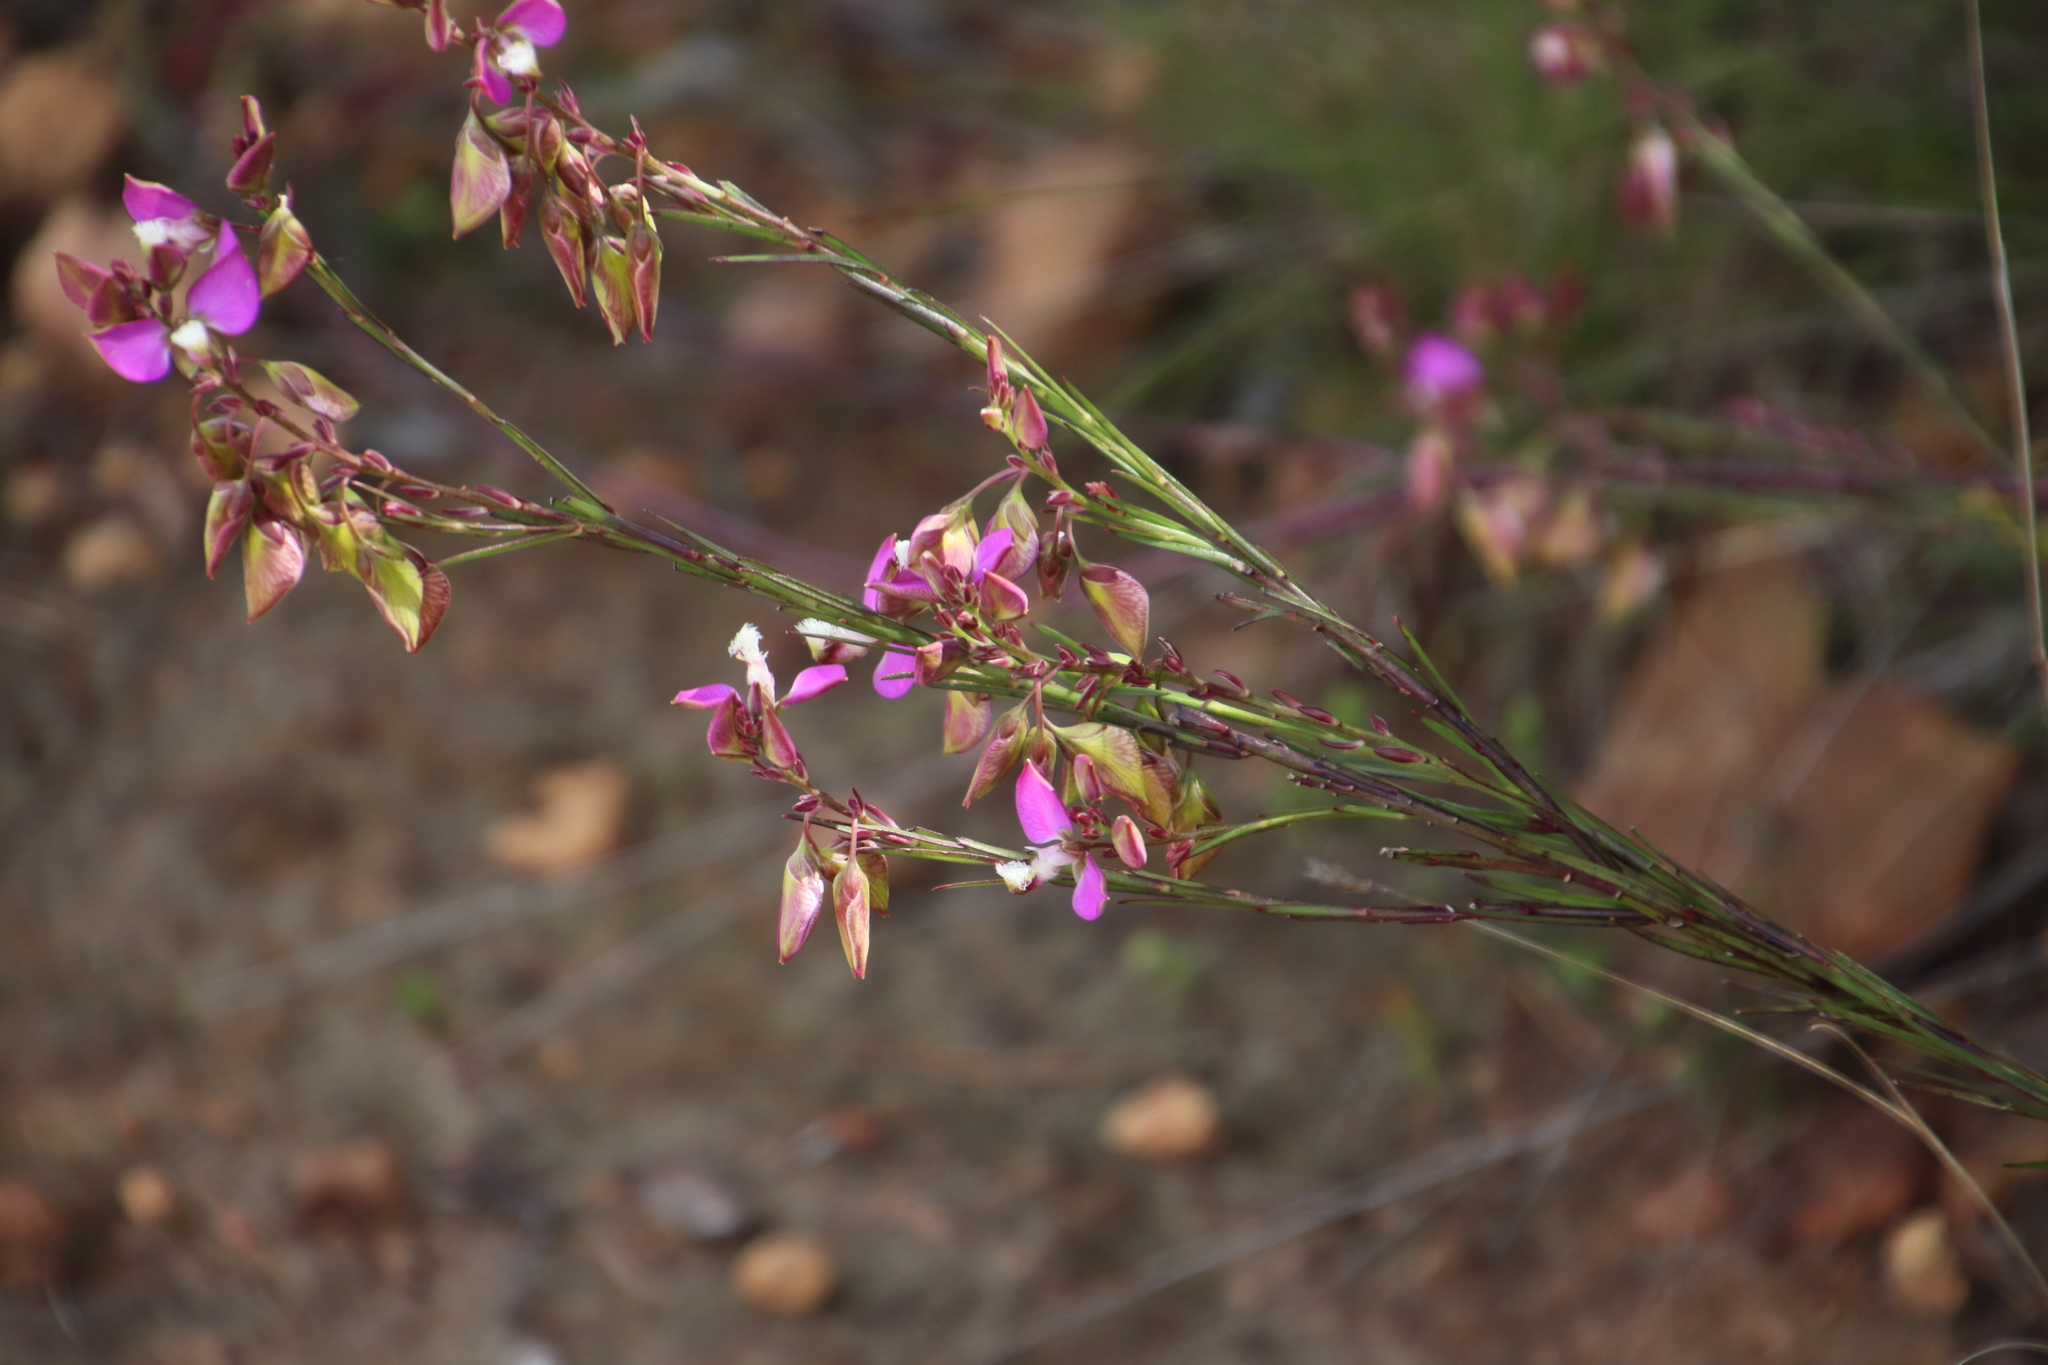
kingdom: Plantae
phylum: Tracheophyta
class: Magnoliopsida
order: Fabales
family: Polygalaceae
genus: Polygala
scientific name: Polygala bracteolata
